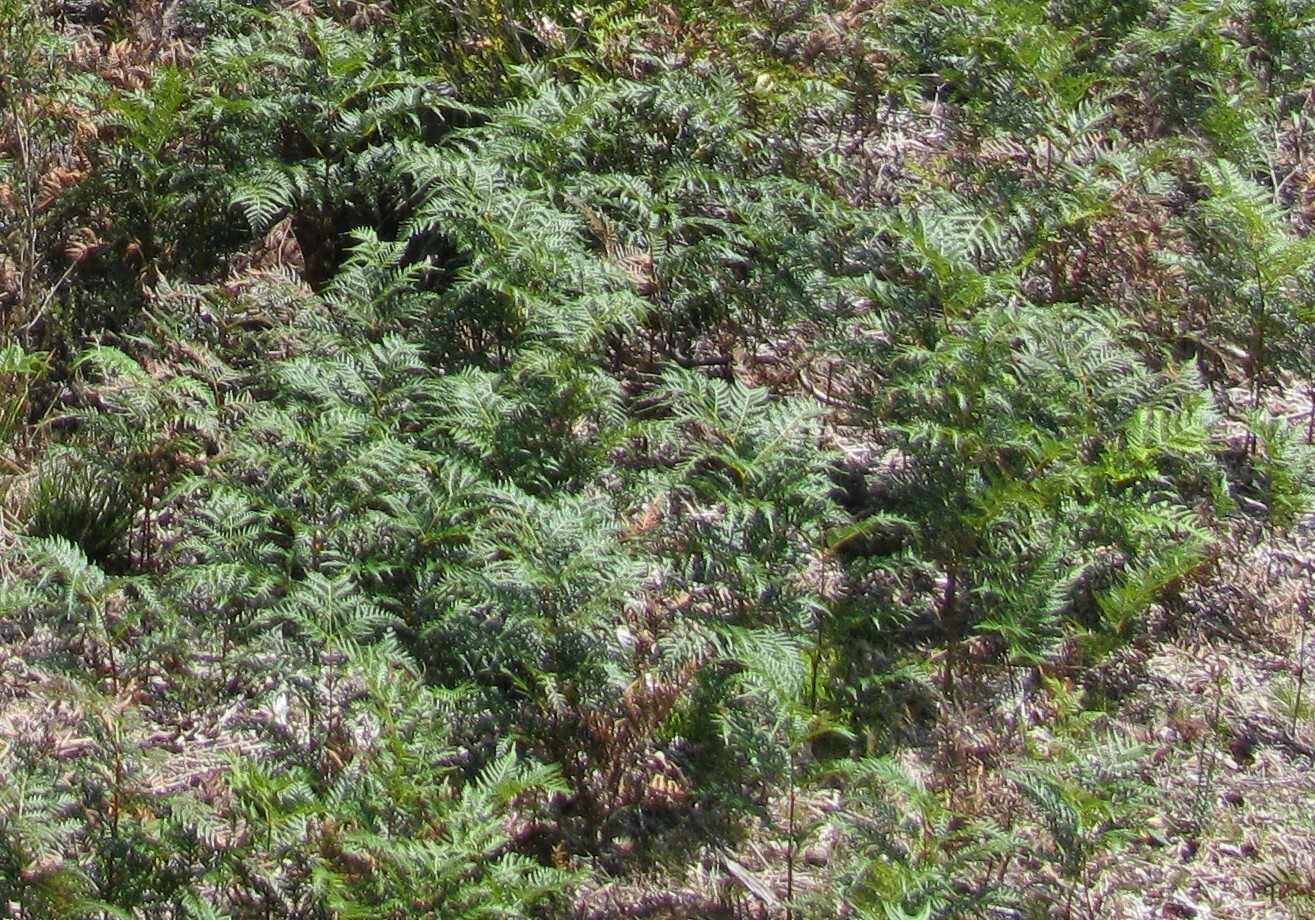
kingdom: Plantae
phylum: Tracheophyta
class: Polypodiopsida
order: Polypodiales
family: Dennstaedtiaceae
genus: Pteridium
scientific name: Pteridium esculentum
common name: Bracken fern
